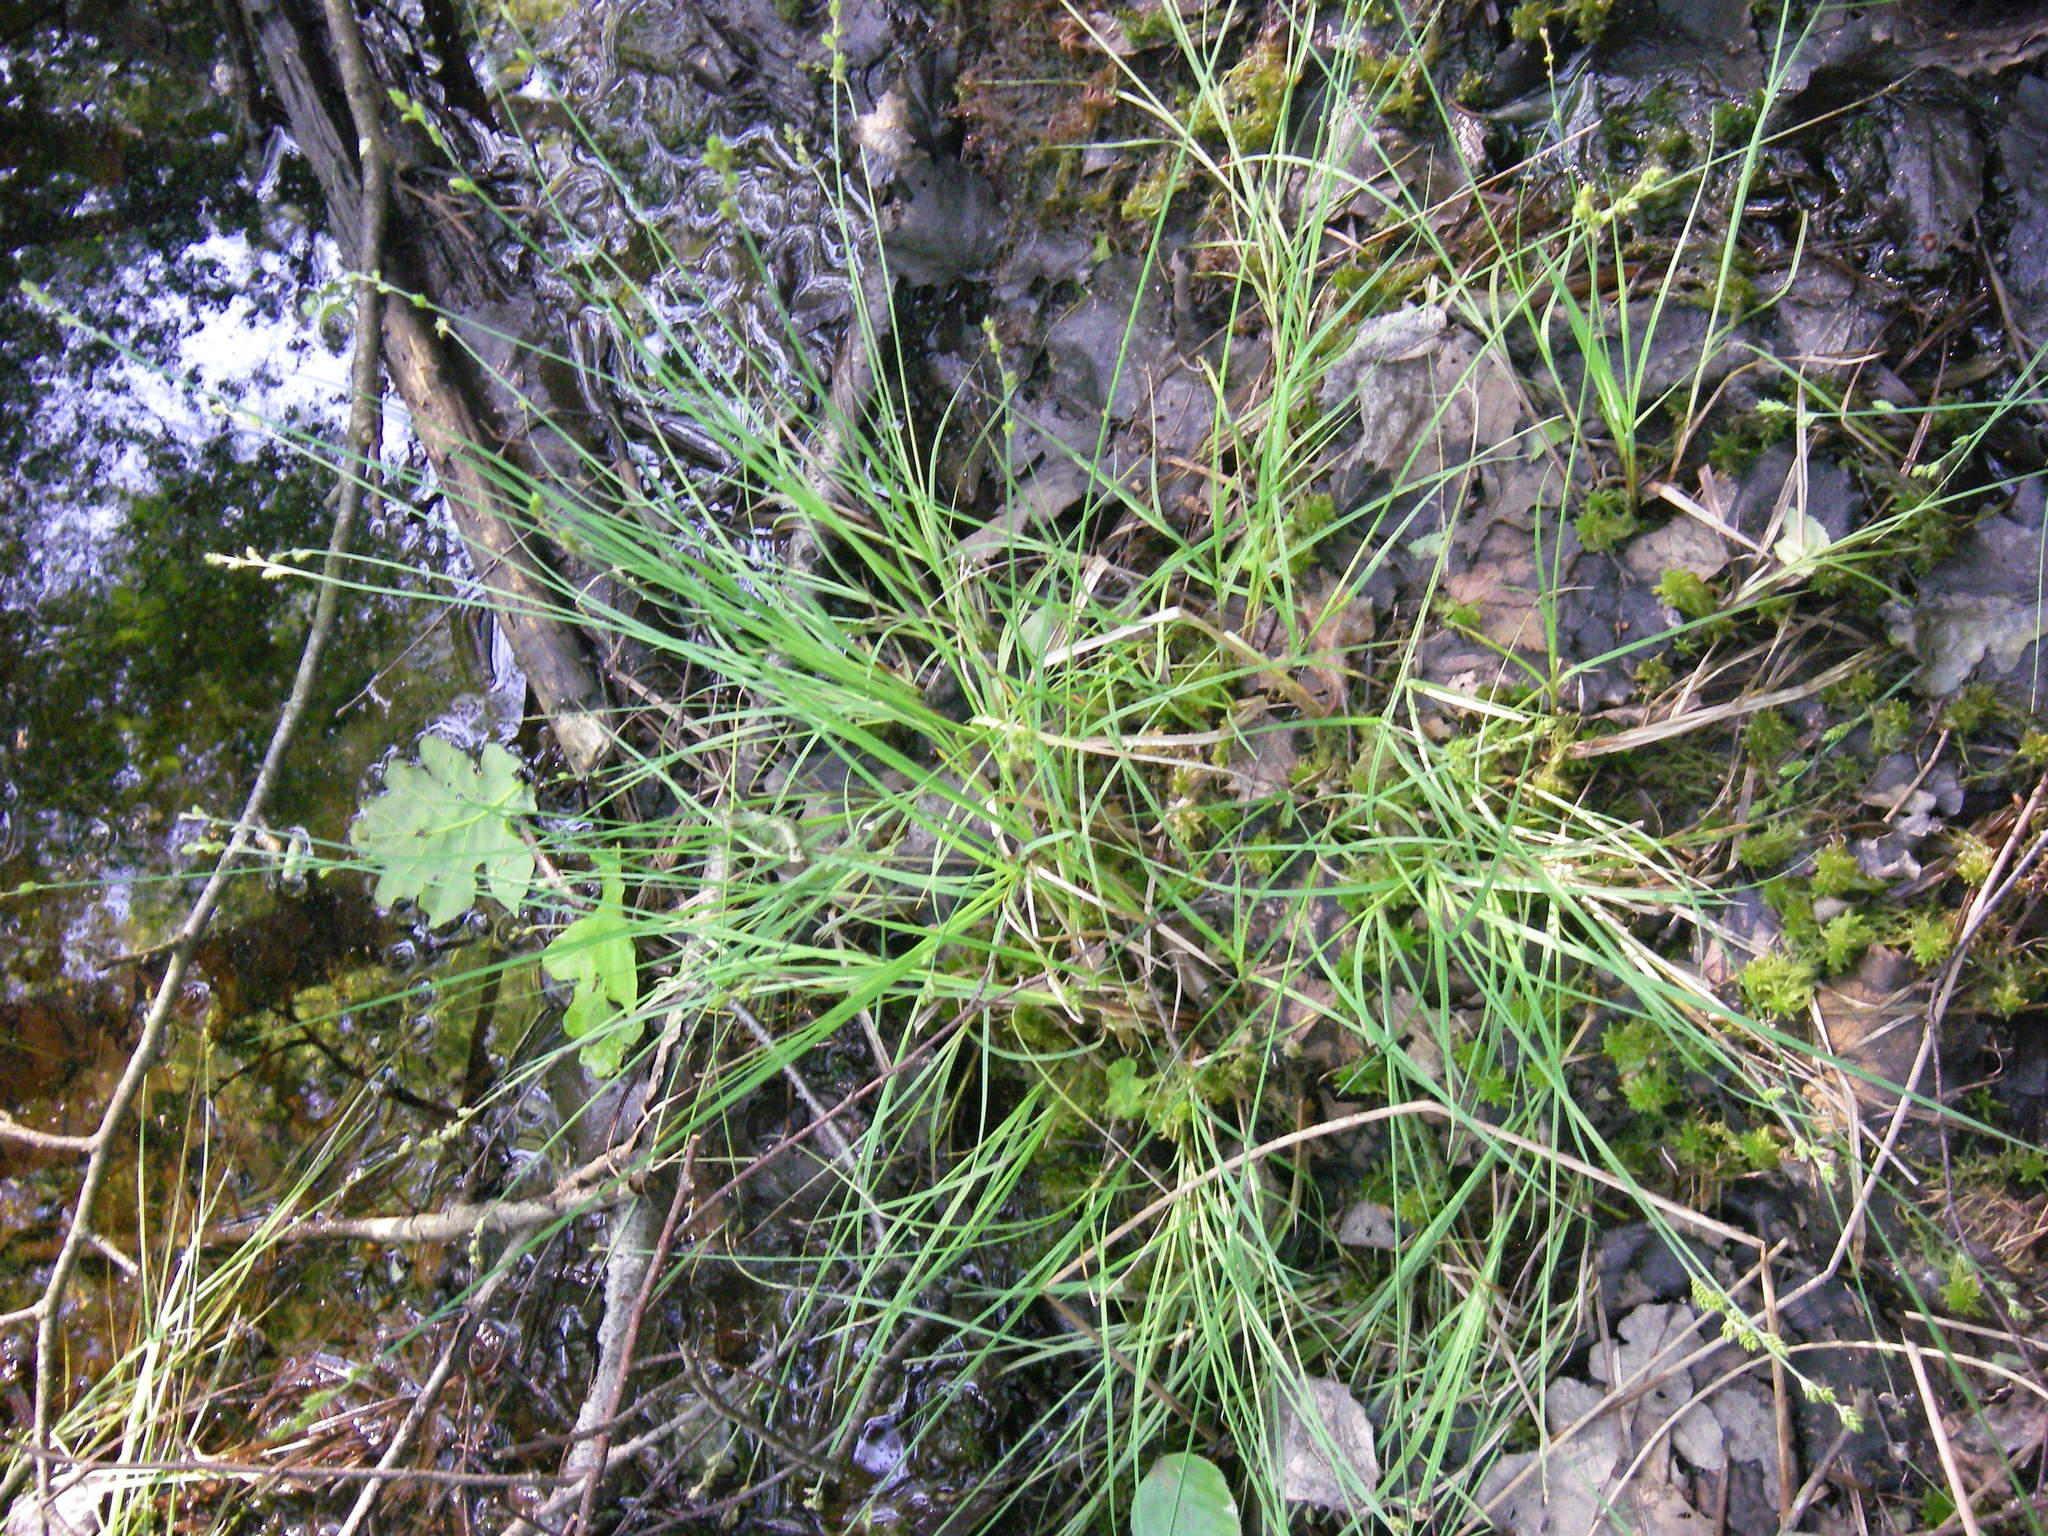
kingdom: Plantae
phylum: Tracheophyta
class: Liliopsida
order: Poales
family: Cyperaceae
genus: Carex
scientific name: Carex canescens
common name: White sedge
